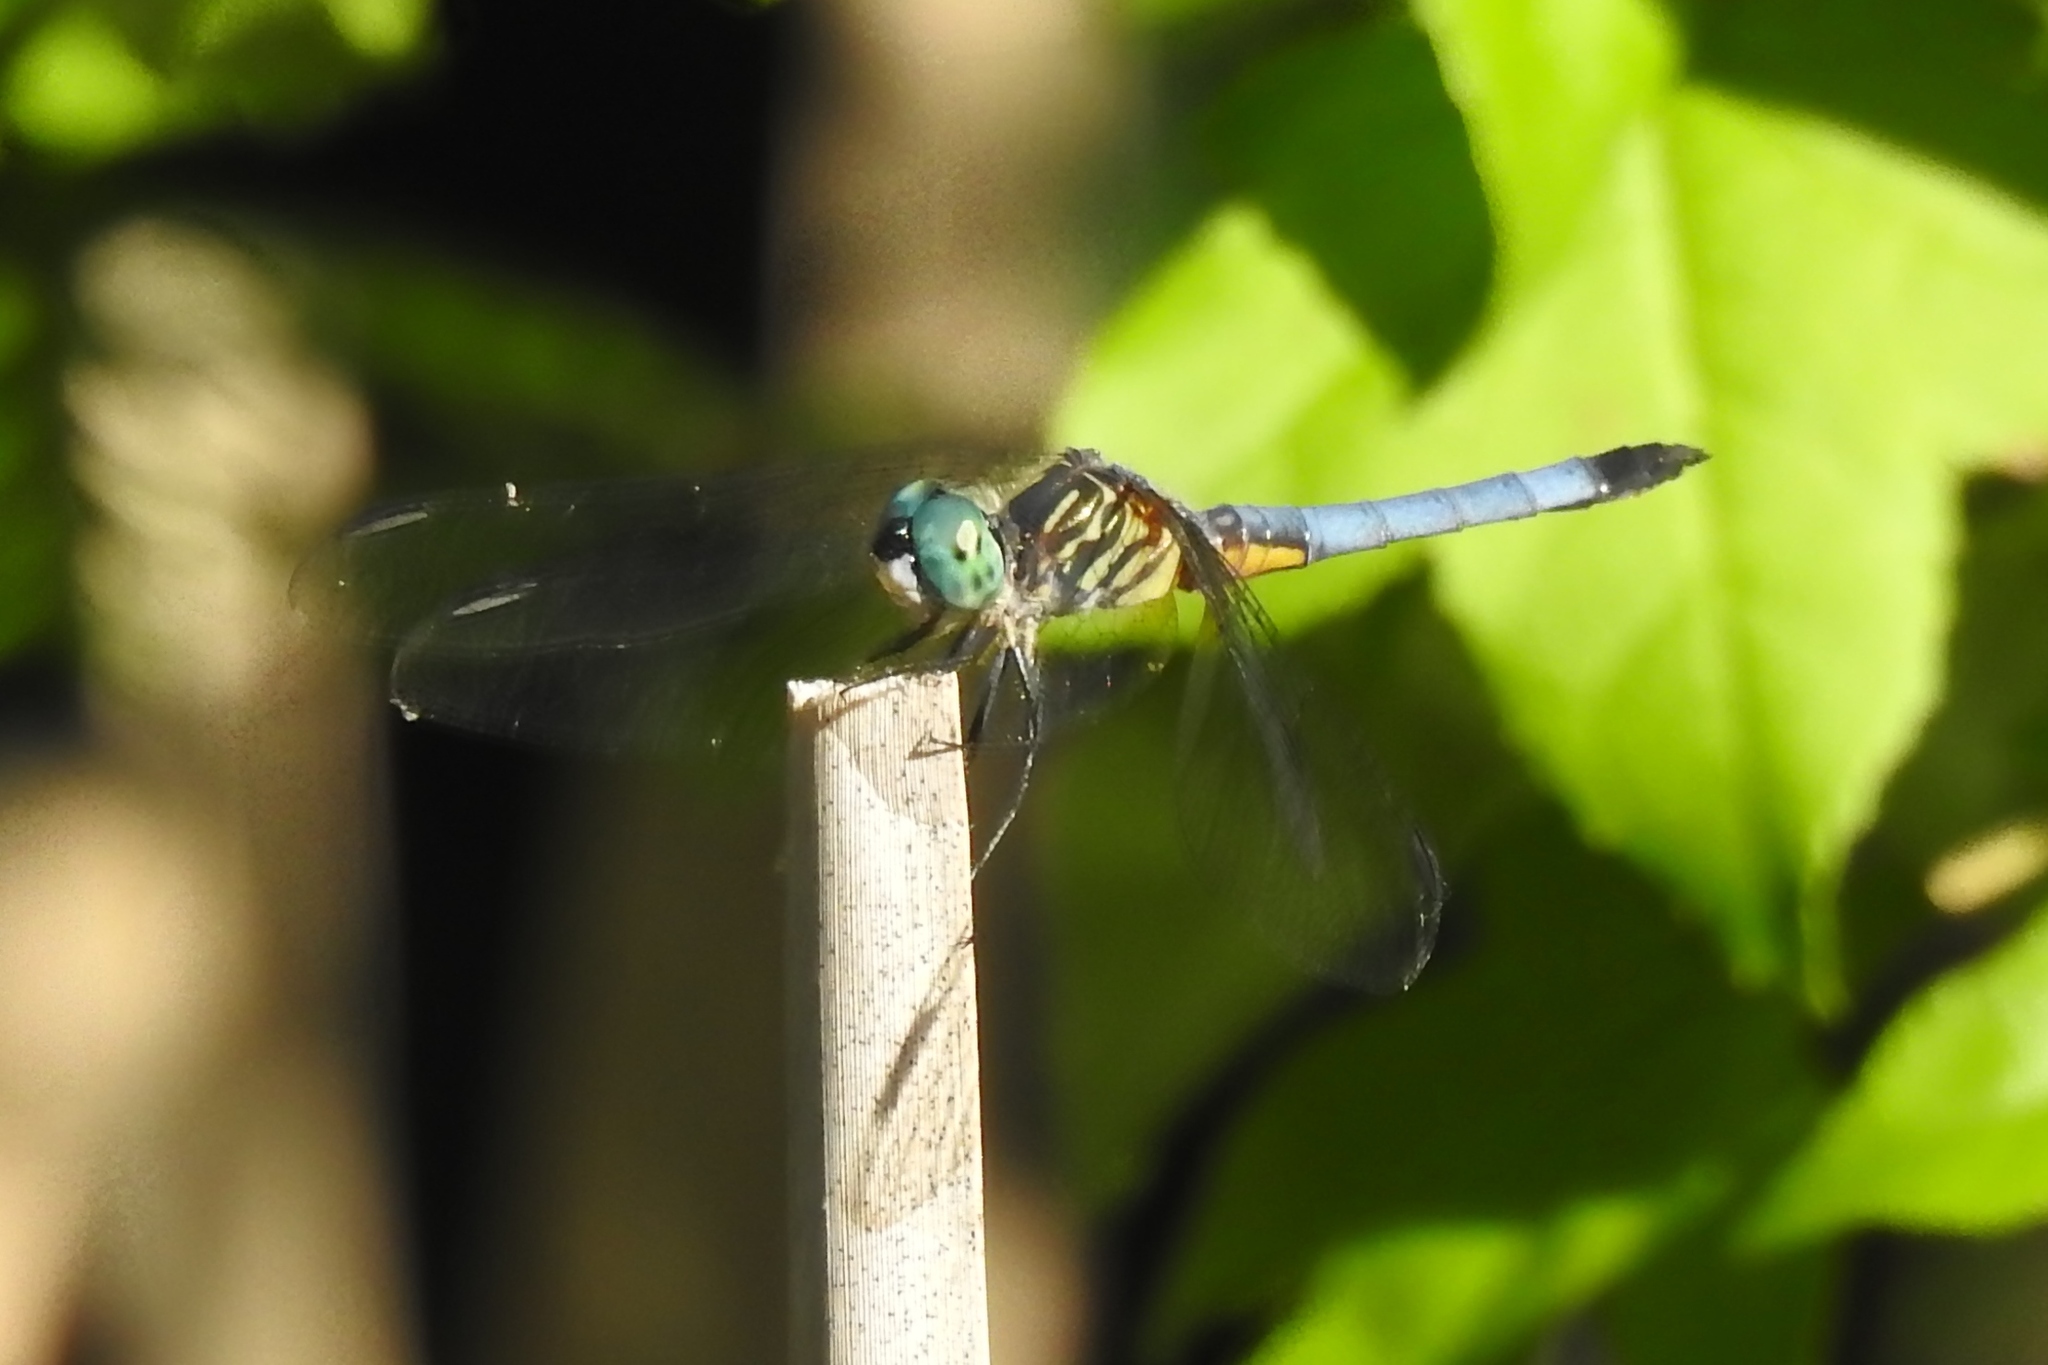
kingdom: Animalia
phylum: Arthropoda
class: Insecta
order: Odonata
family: Libellulidae
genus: Pachydiplax
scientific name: Pachydiplax longipennis
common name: Blue dasher
